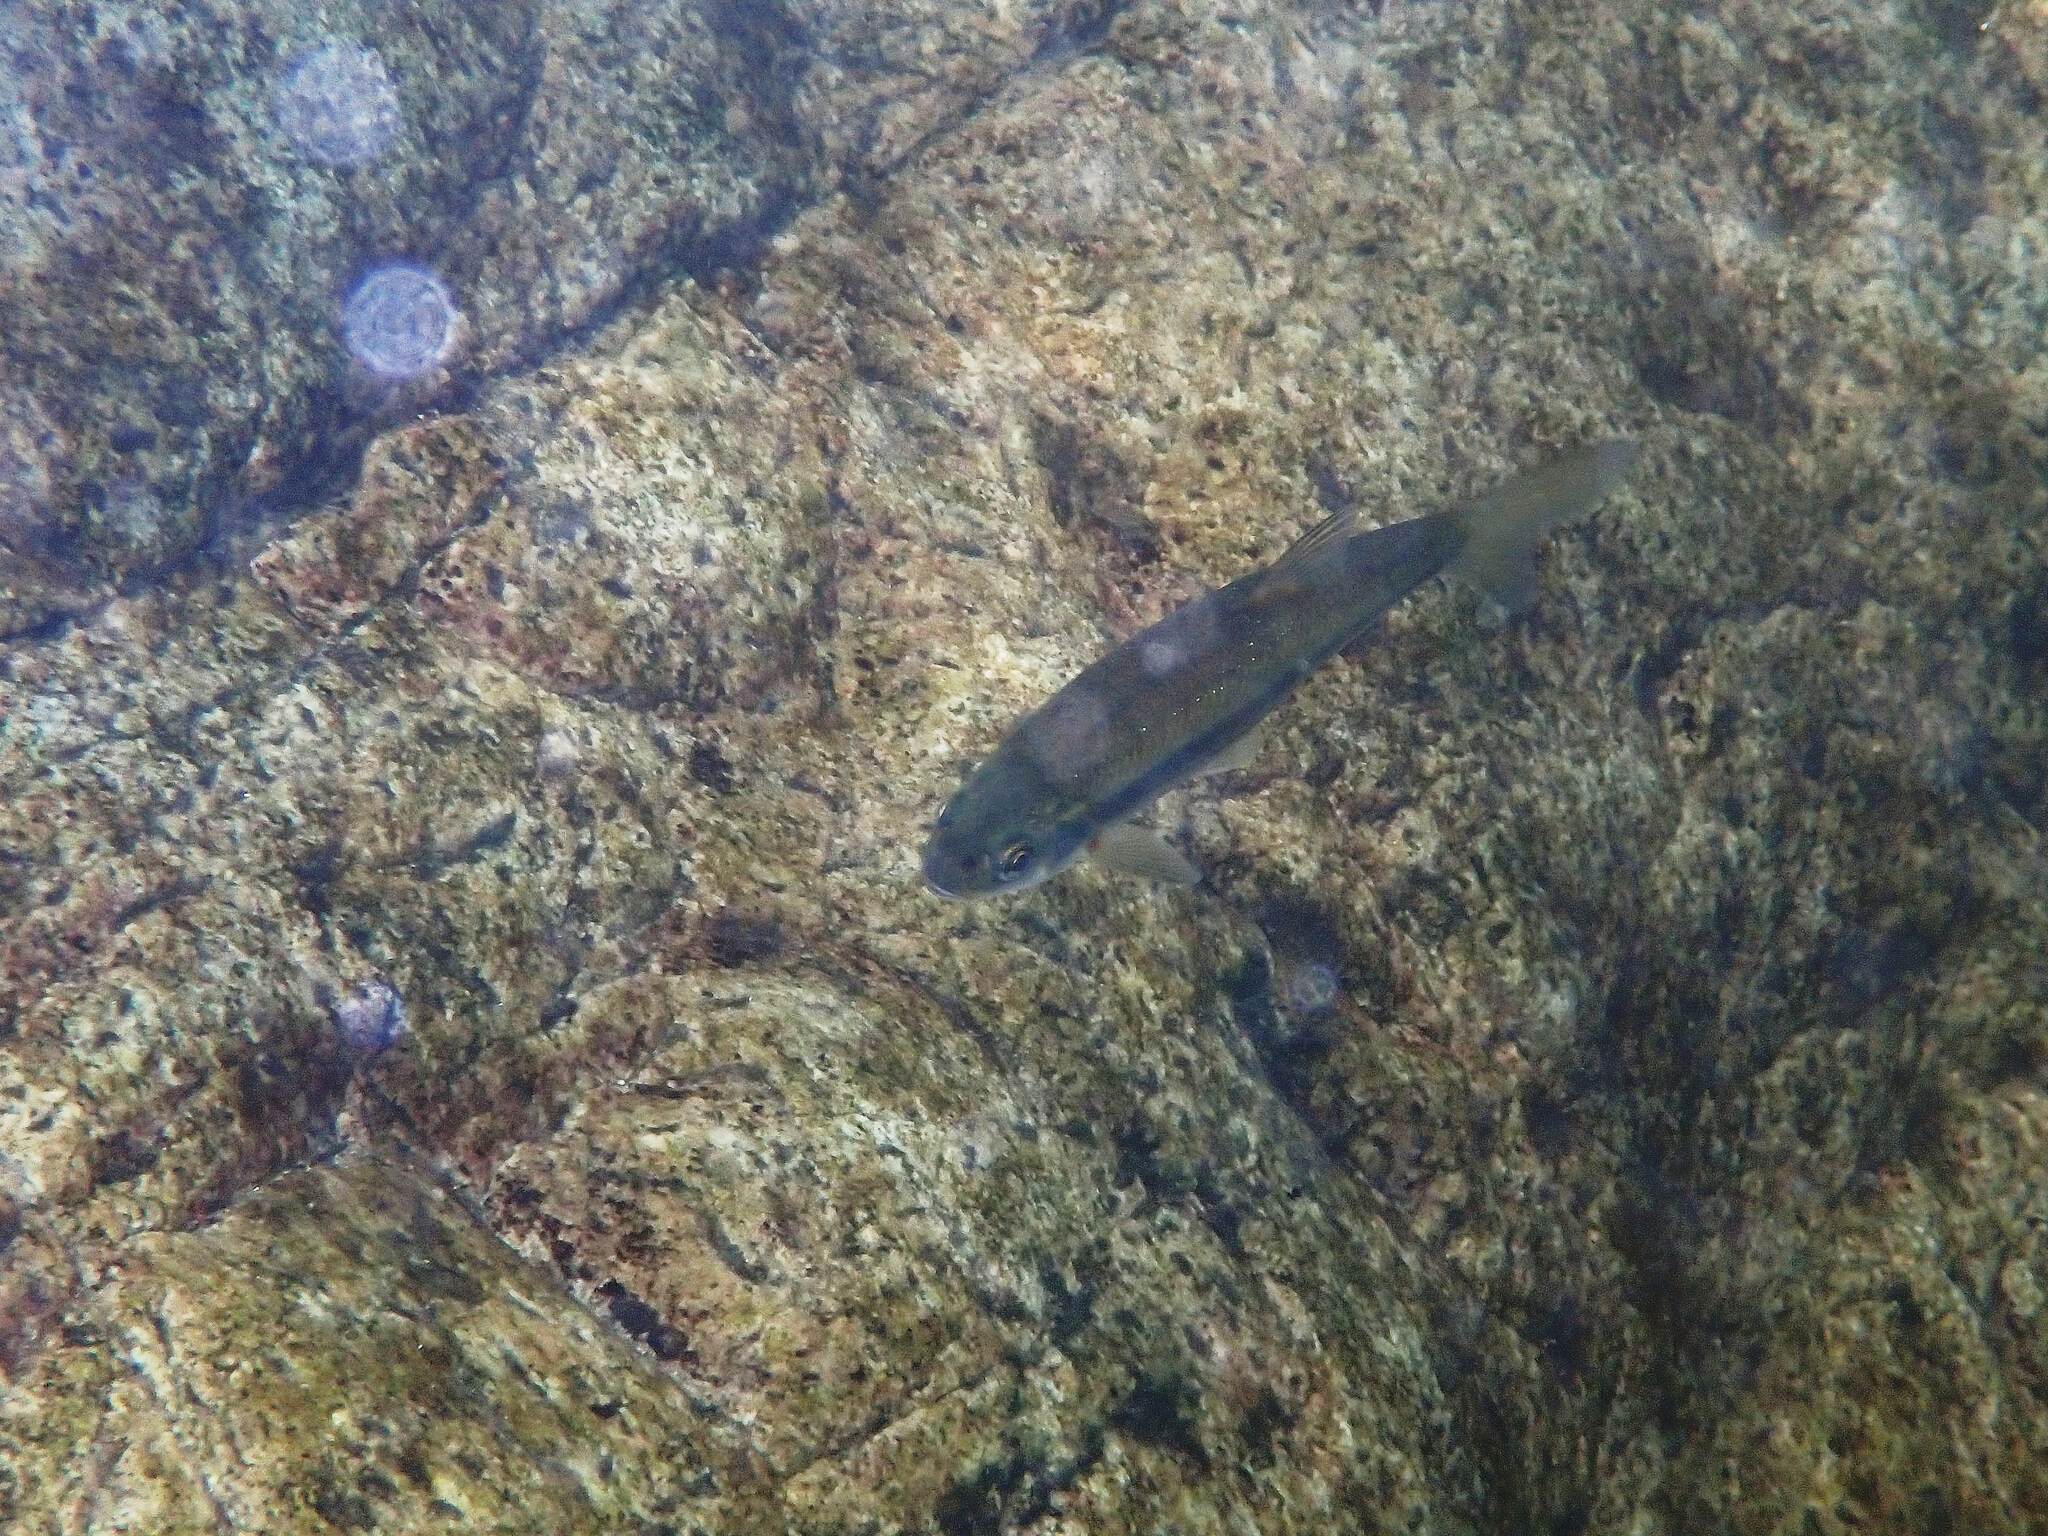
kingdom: Animalia
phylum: Chordata
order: Cypriniformes
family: Cyprinidae
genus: Telestes
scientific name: Telestes souffia
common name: Souffia
